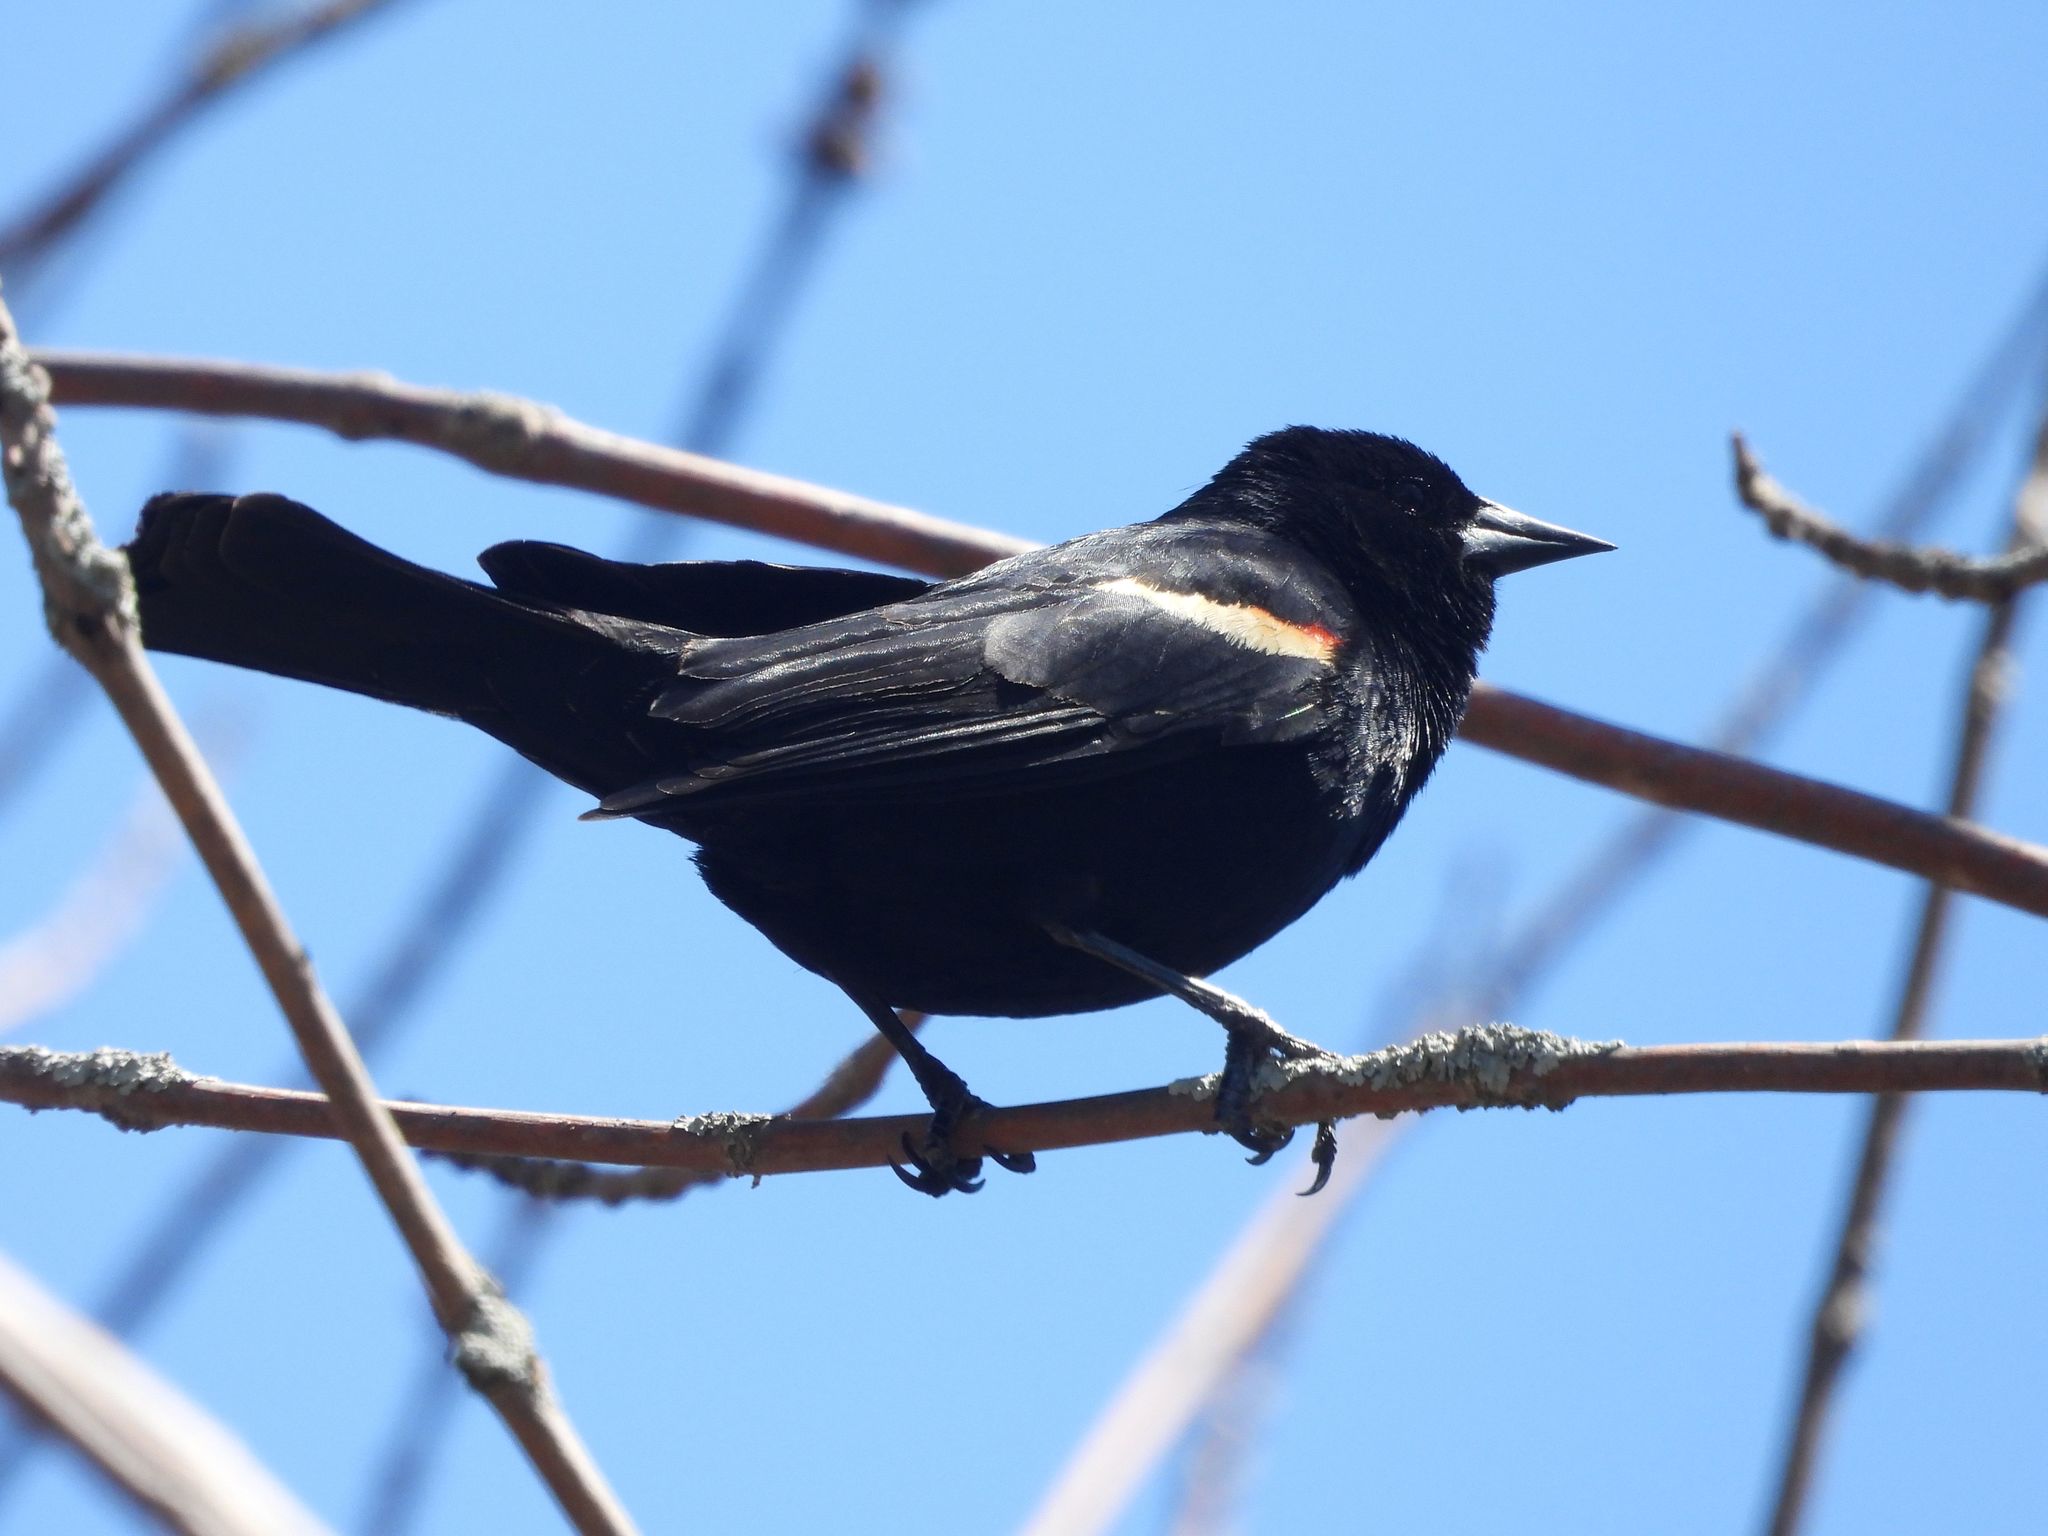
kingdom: Animalia
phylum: Chordata
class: Aves
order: Passeriformes
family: Icteridae
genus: Agelaius
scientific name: Agelaius phoeniceus
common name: Red-winged blackbird
